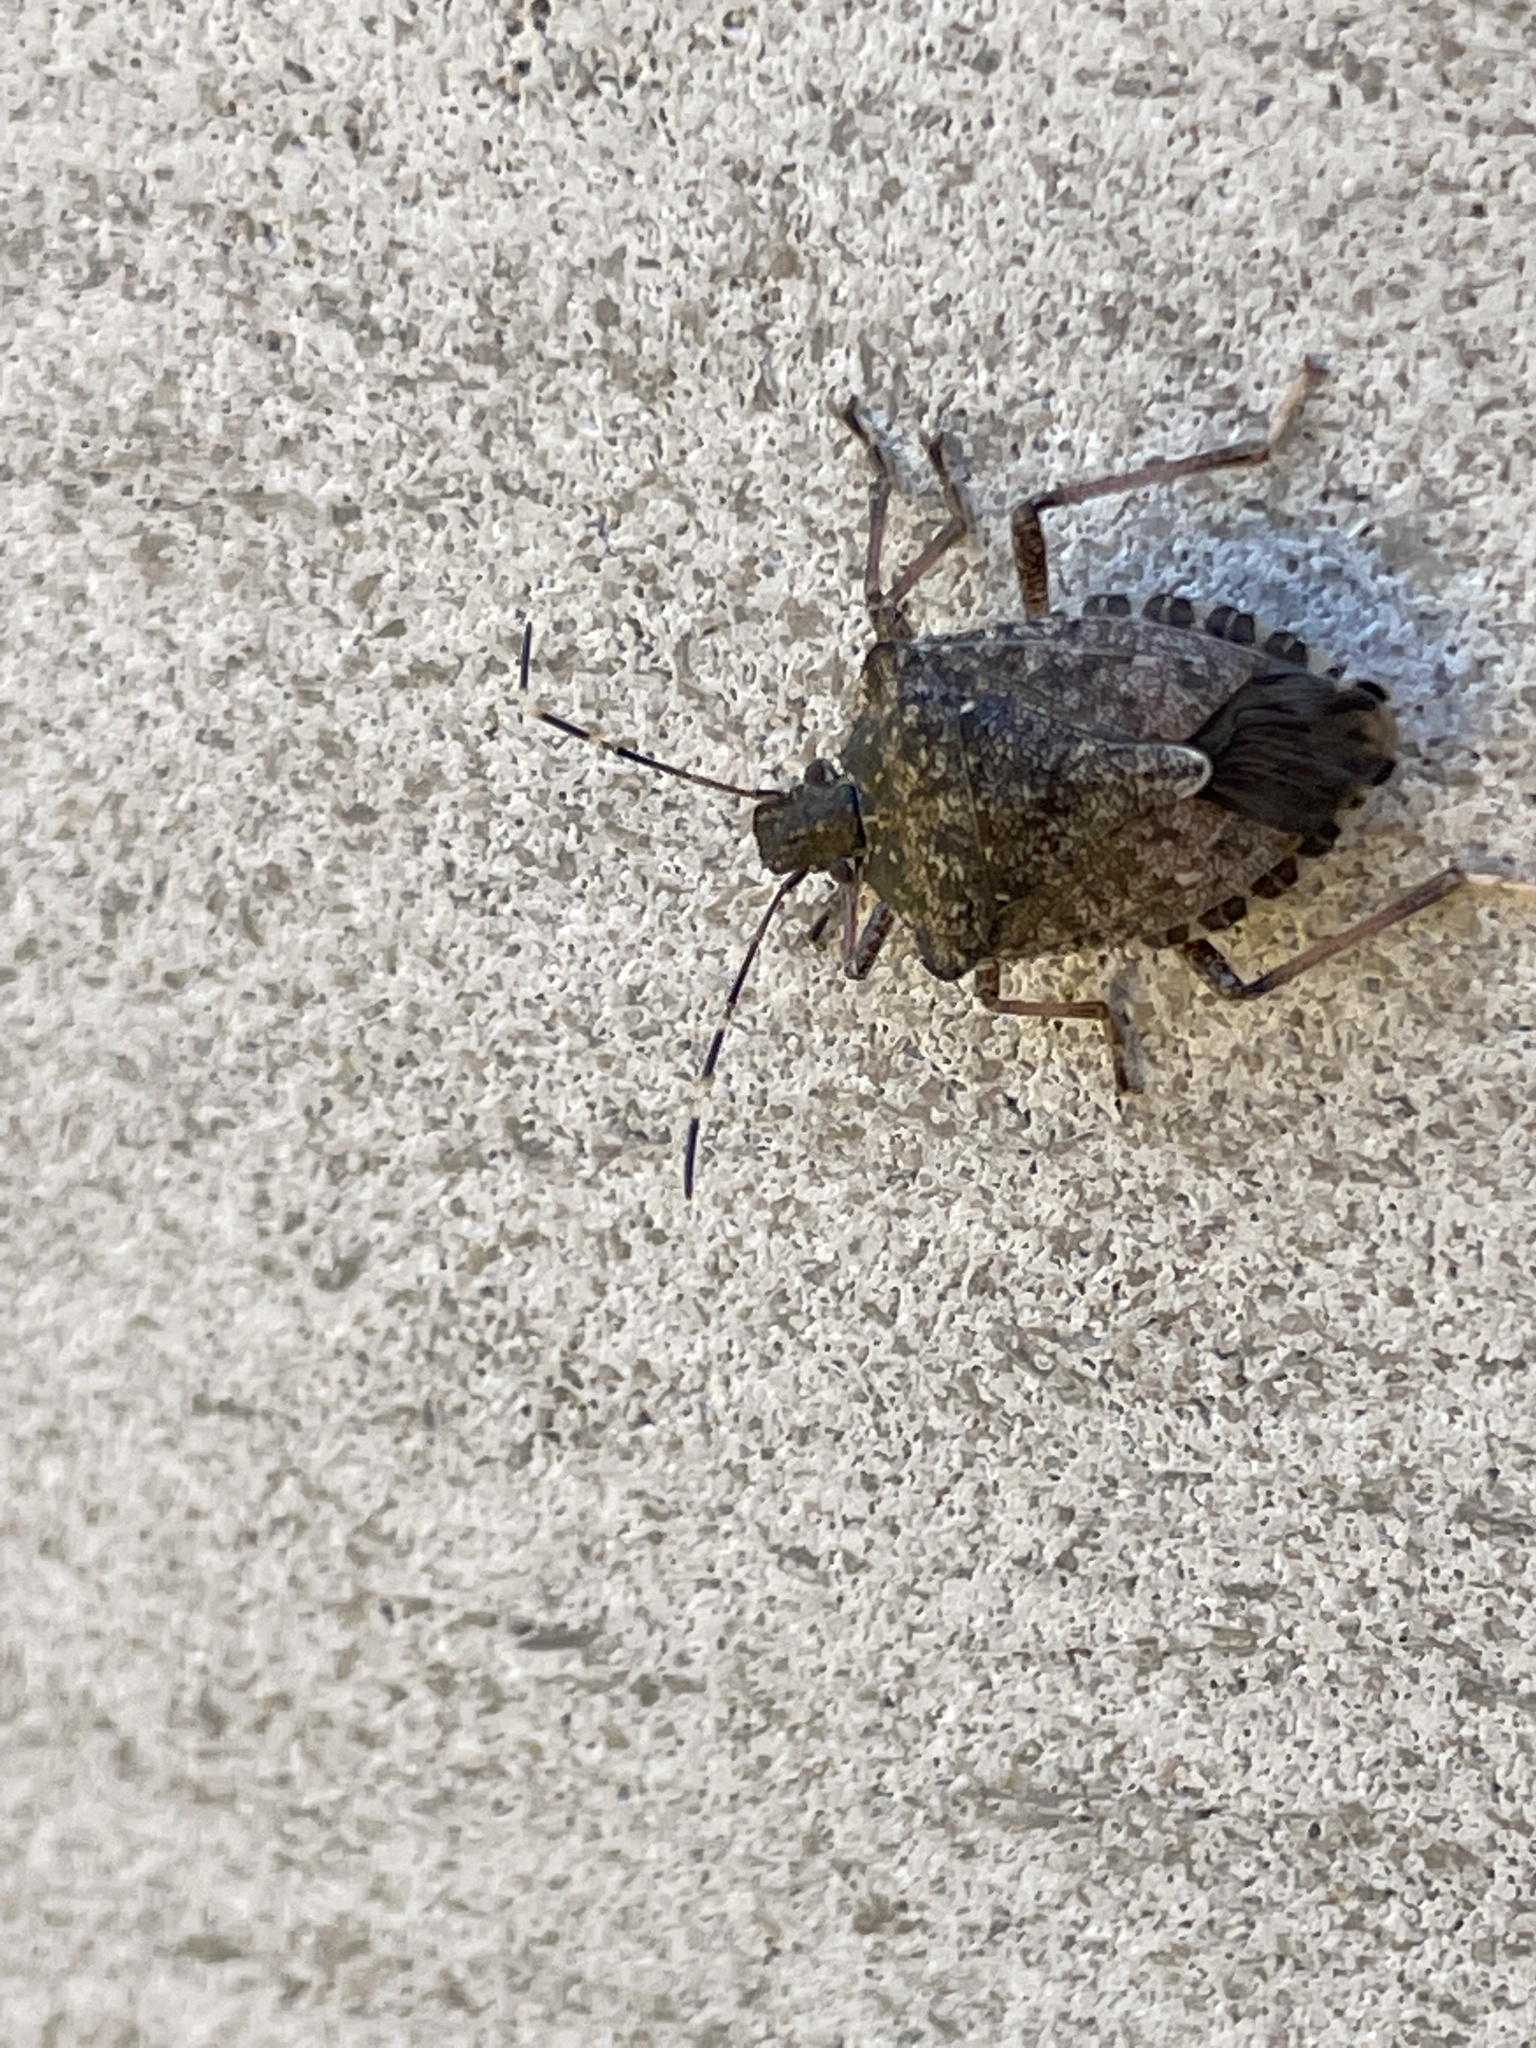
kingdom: Animalia
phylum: Arthropoda
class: Insecta
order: Hemiptera
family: Pentatomidae
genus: Halyomorpha
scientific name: Halyomorpha halys
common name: Brown marmorated stink bug
